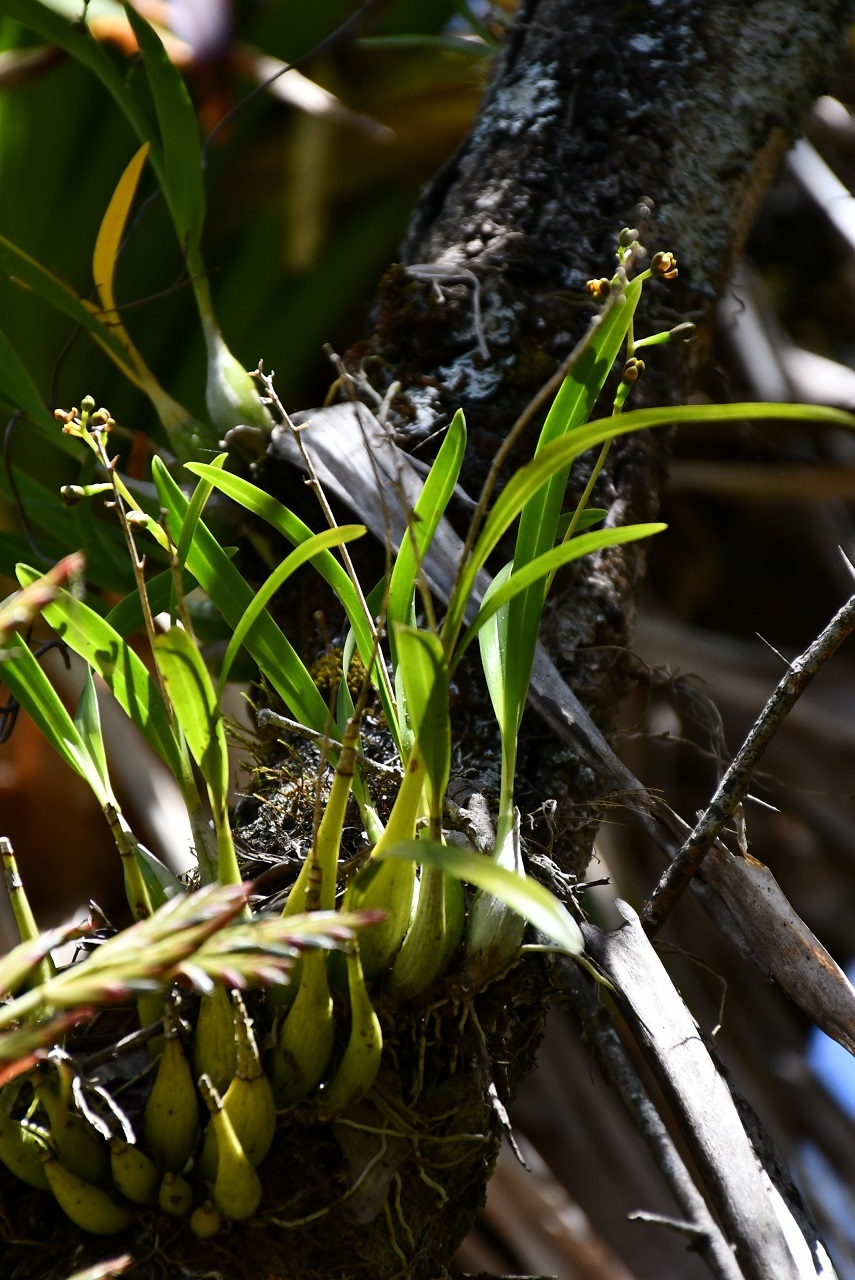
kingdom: Plantae
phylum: Tracheophyta
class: Liliopsida
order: Asparagales
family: Orchidaceae
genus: Prosthechea
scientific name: Prosthechea ochracea
